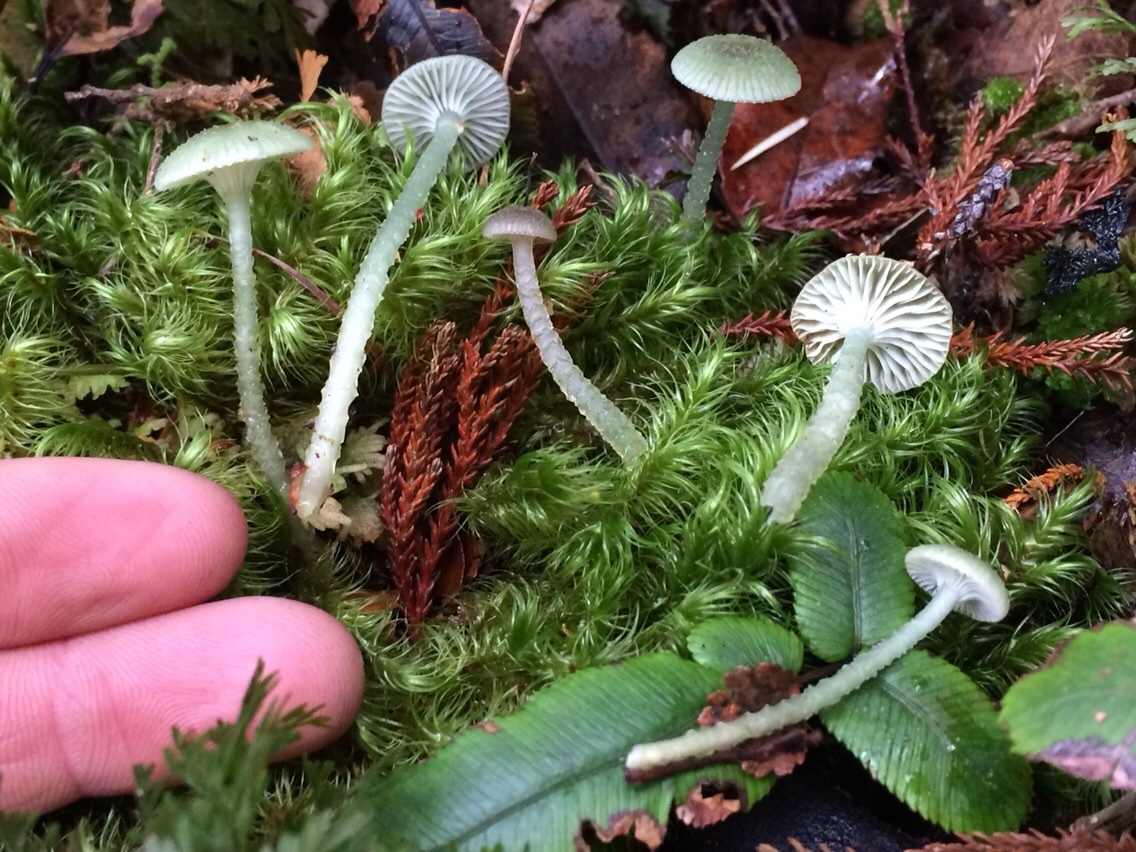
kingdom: Fungi
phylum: Basidiomycota
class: Agaricomycetes
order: Agaricales
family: Hygrophoraceae
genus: Gliophorus
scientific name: Gliophorus graminicolor
